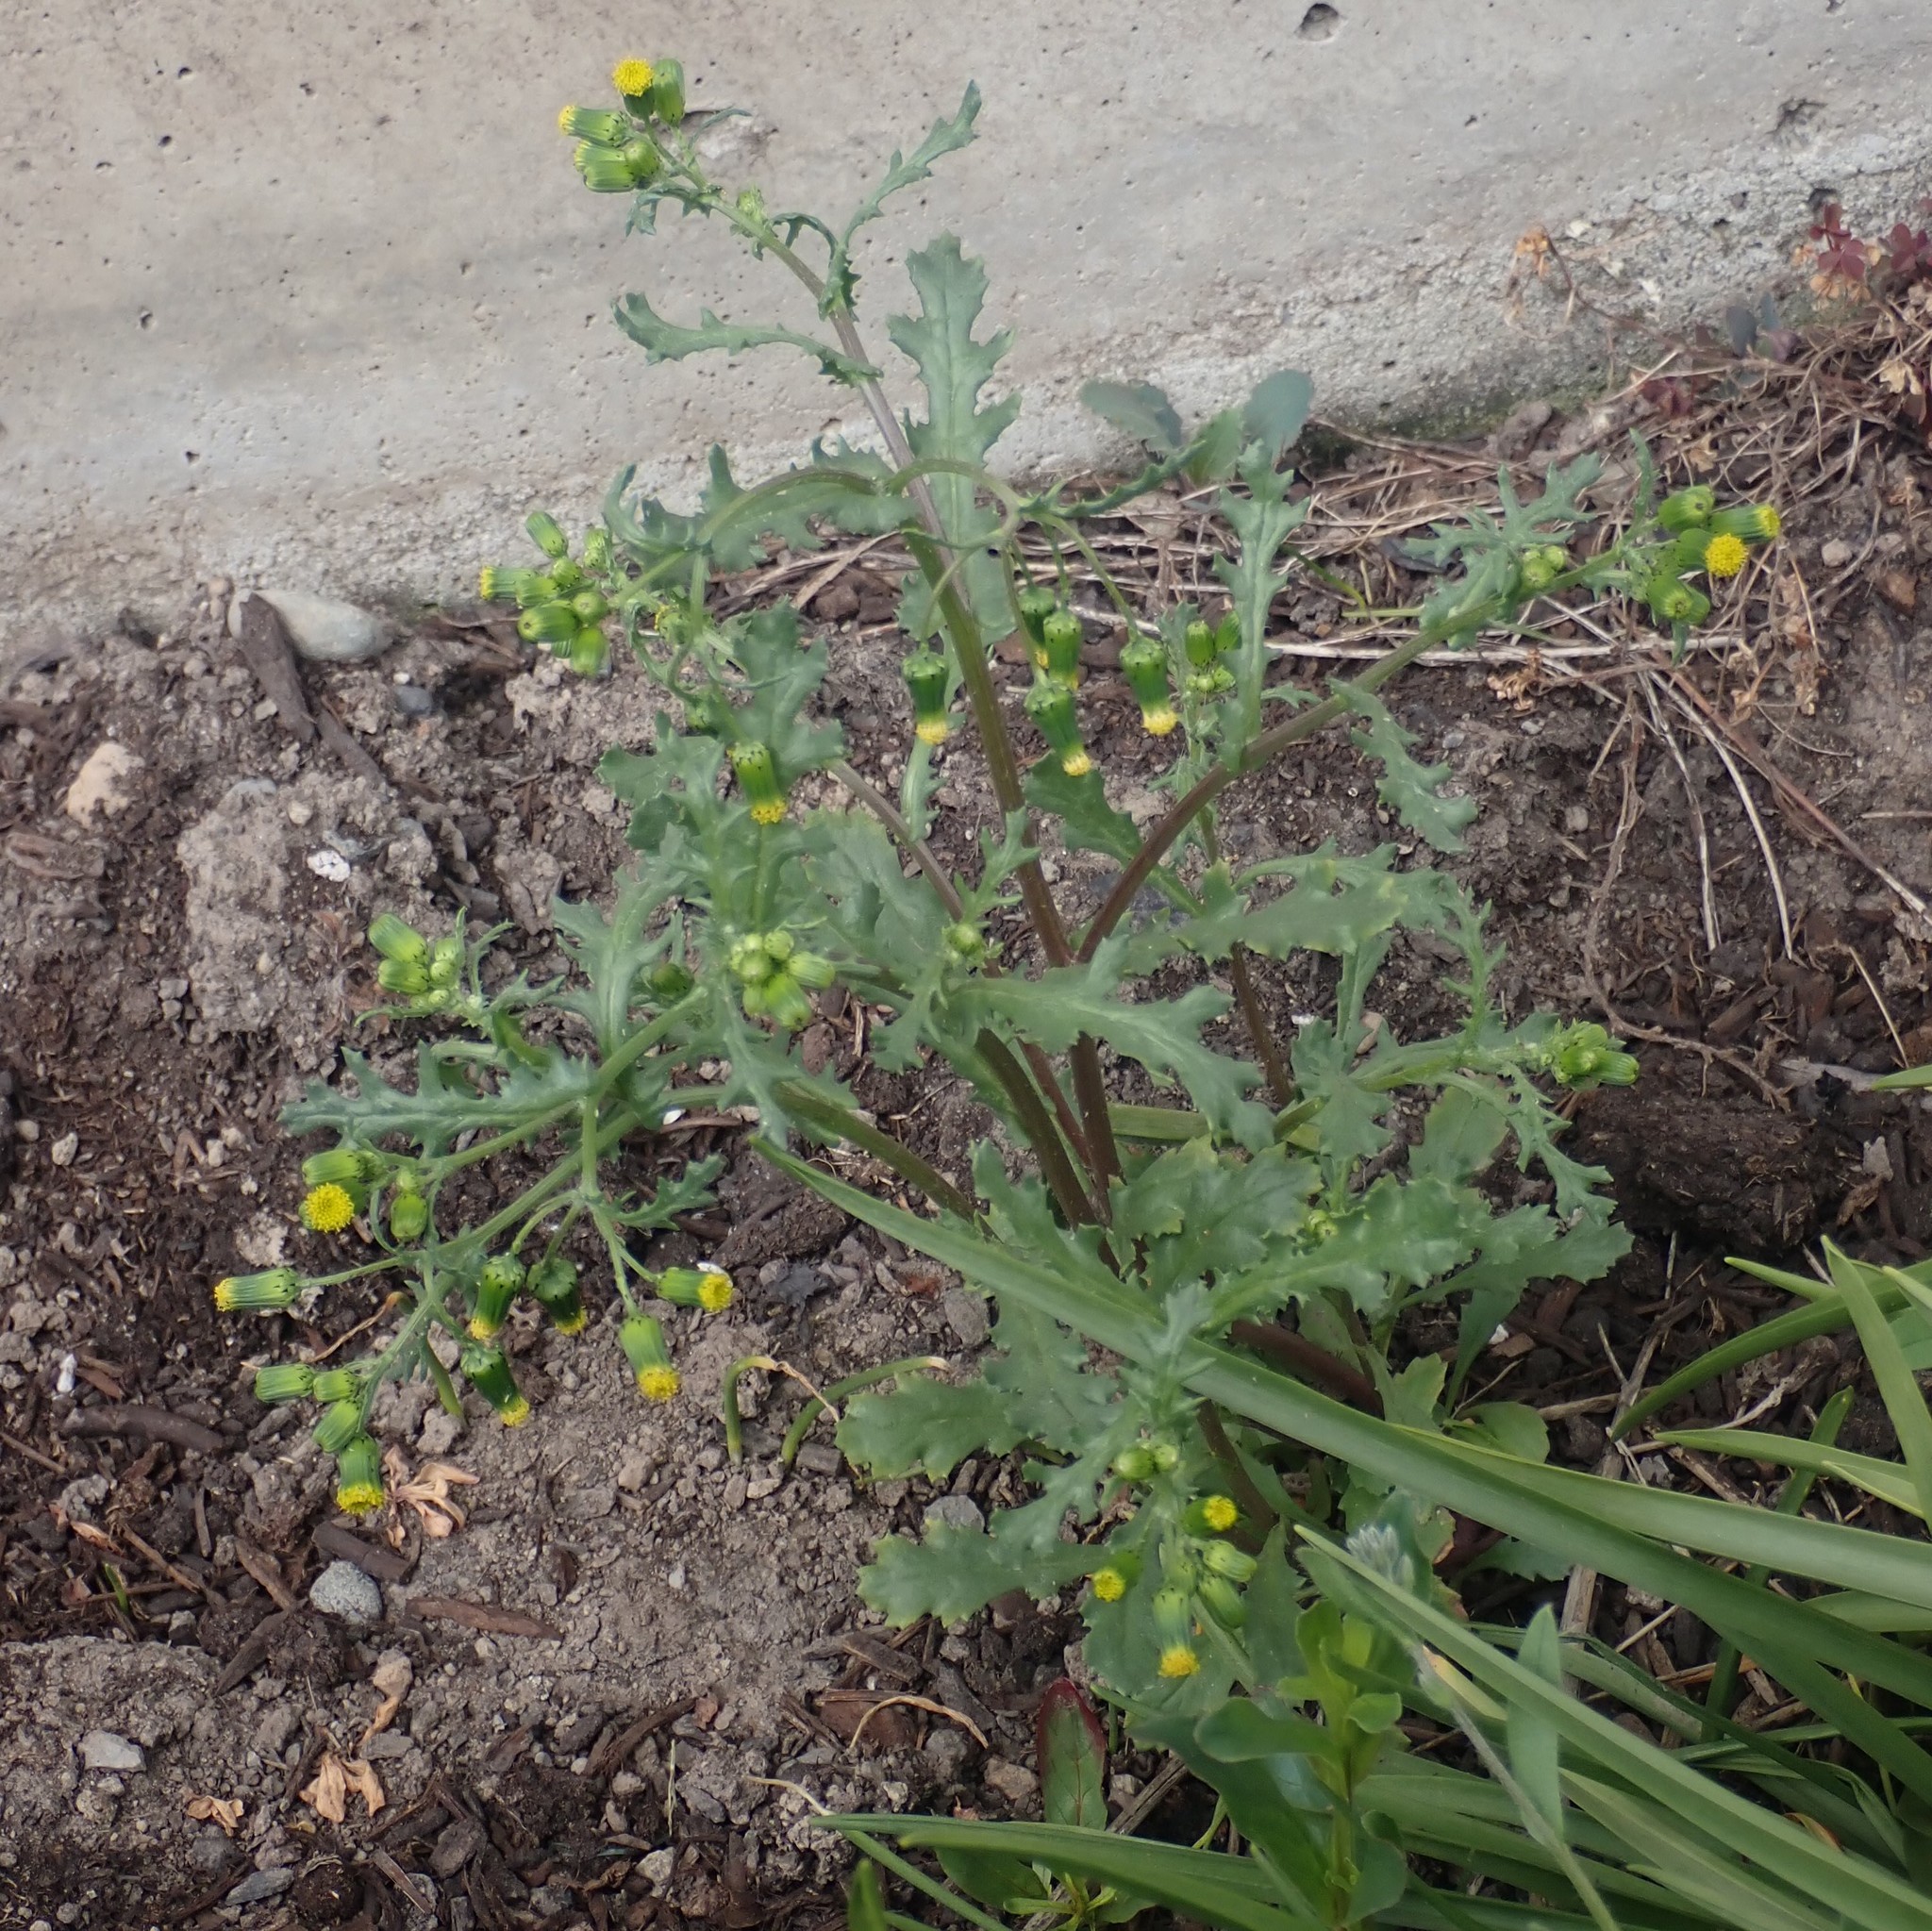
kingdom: Plantae
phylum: Tracheophyta
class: Magnoliopsida
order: Asterales
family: Asteraceae
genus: Senecio
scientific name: Senecio vulgaris
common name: Old-man-in-the-spring
